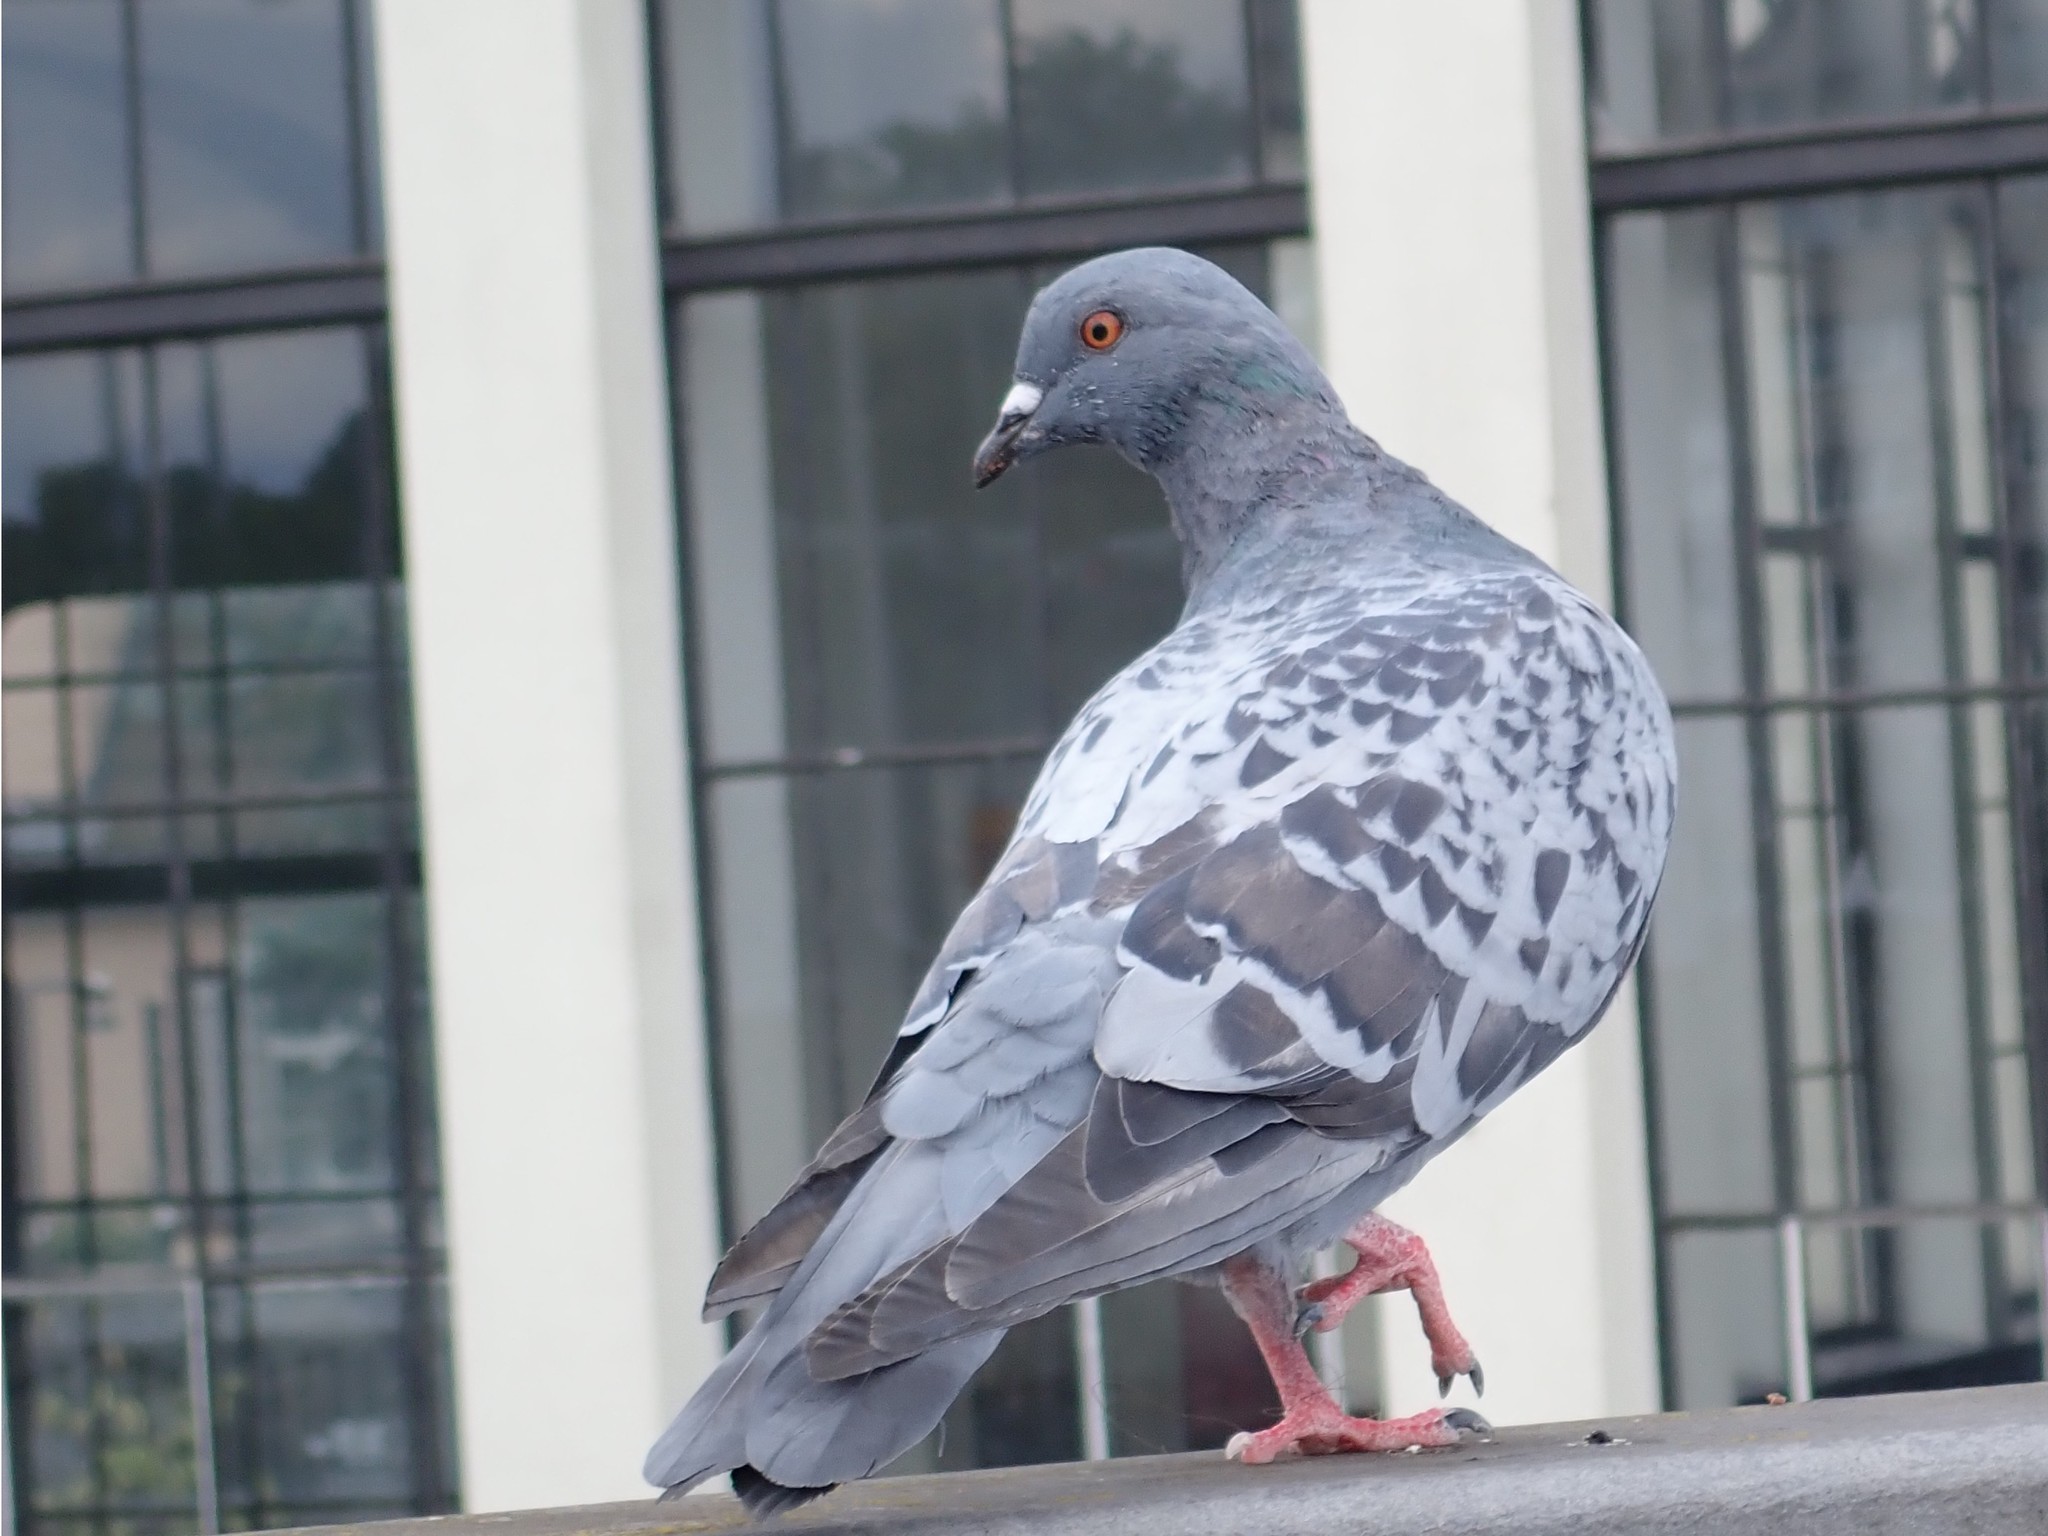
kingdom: Animalia
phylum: Chordata
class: Aves
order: Columbiformes
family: Columbidae
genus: Columba
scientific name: Columba livia
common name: Rock pigeon
